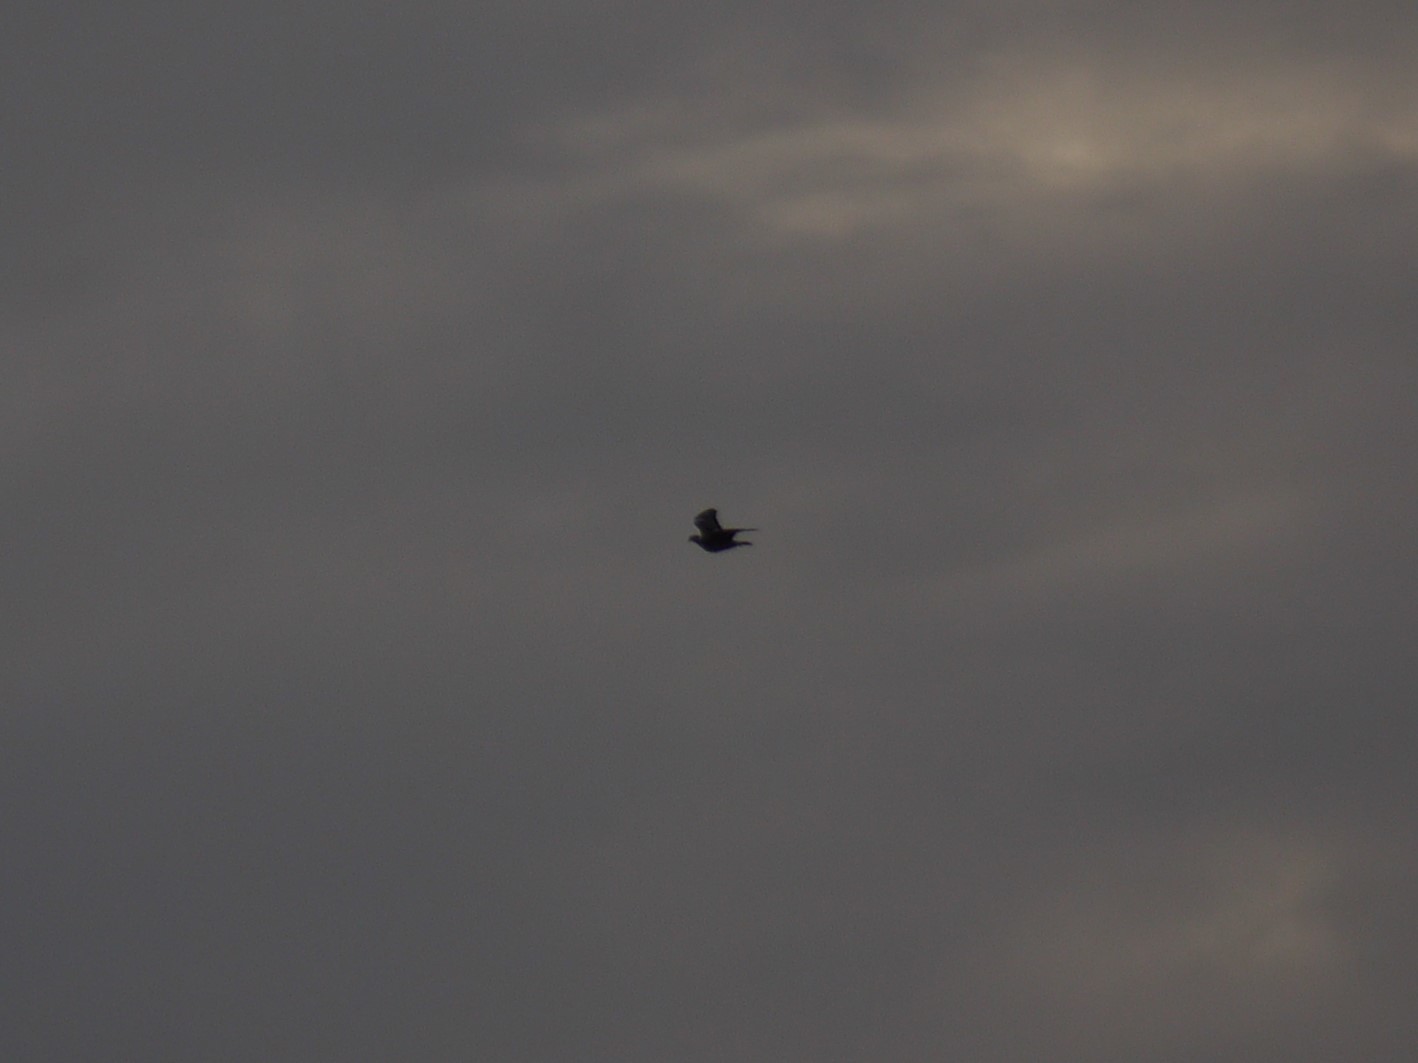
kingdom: Animalia
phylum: Chordata
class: Aves
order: Columbiformes
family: Columbidae
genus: Columba
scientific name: Columba palumbus
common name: Common wood pigeon
